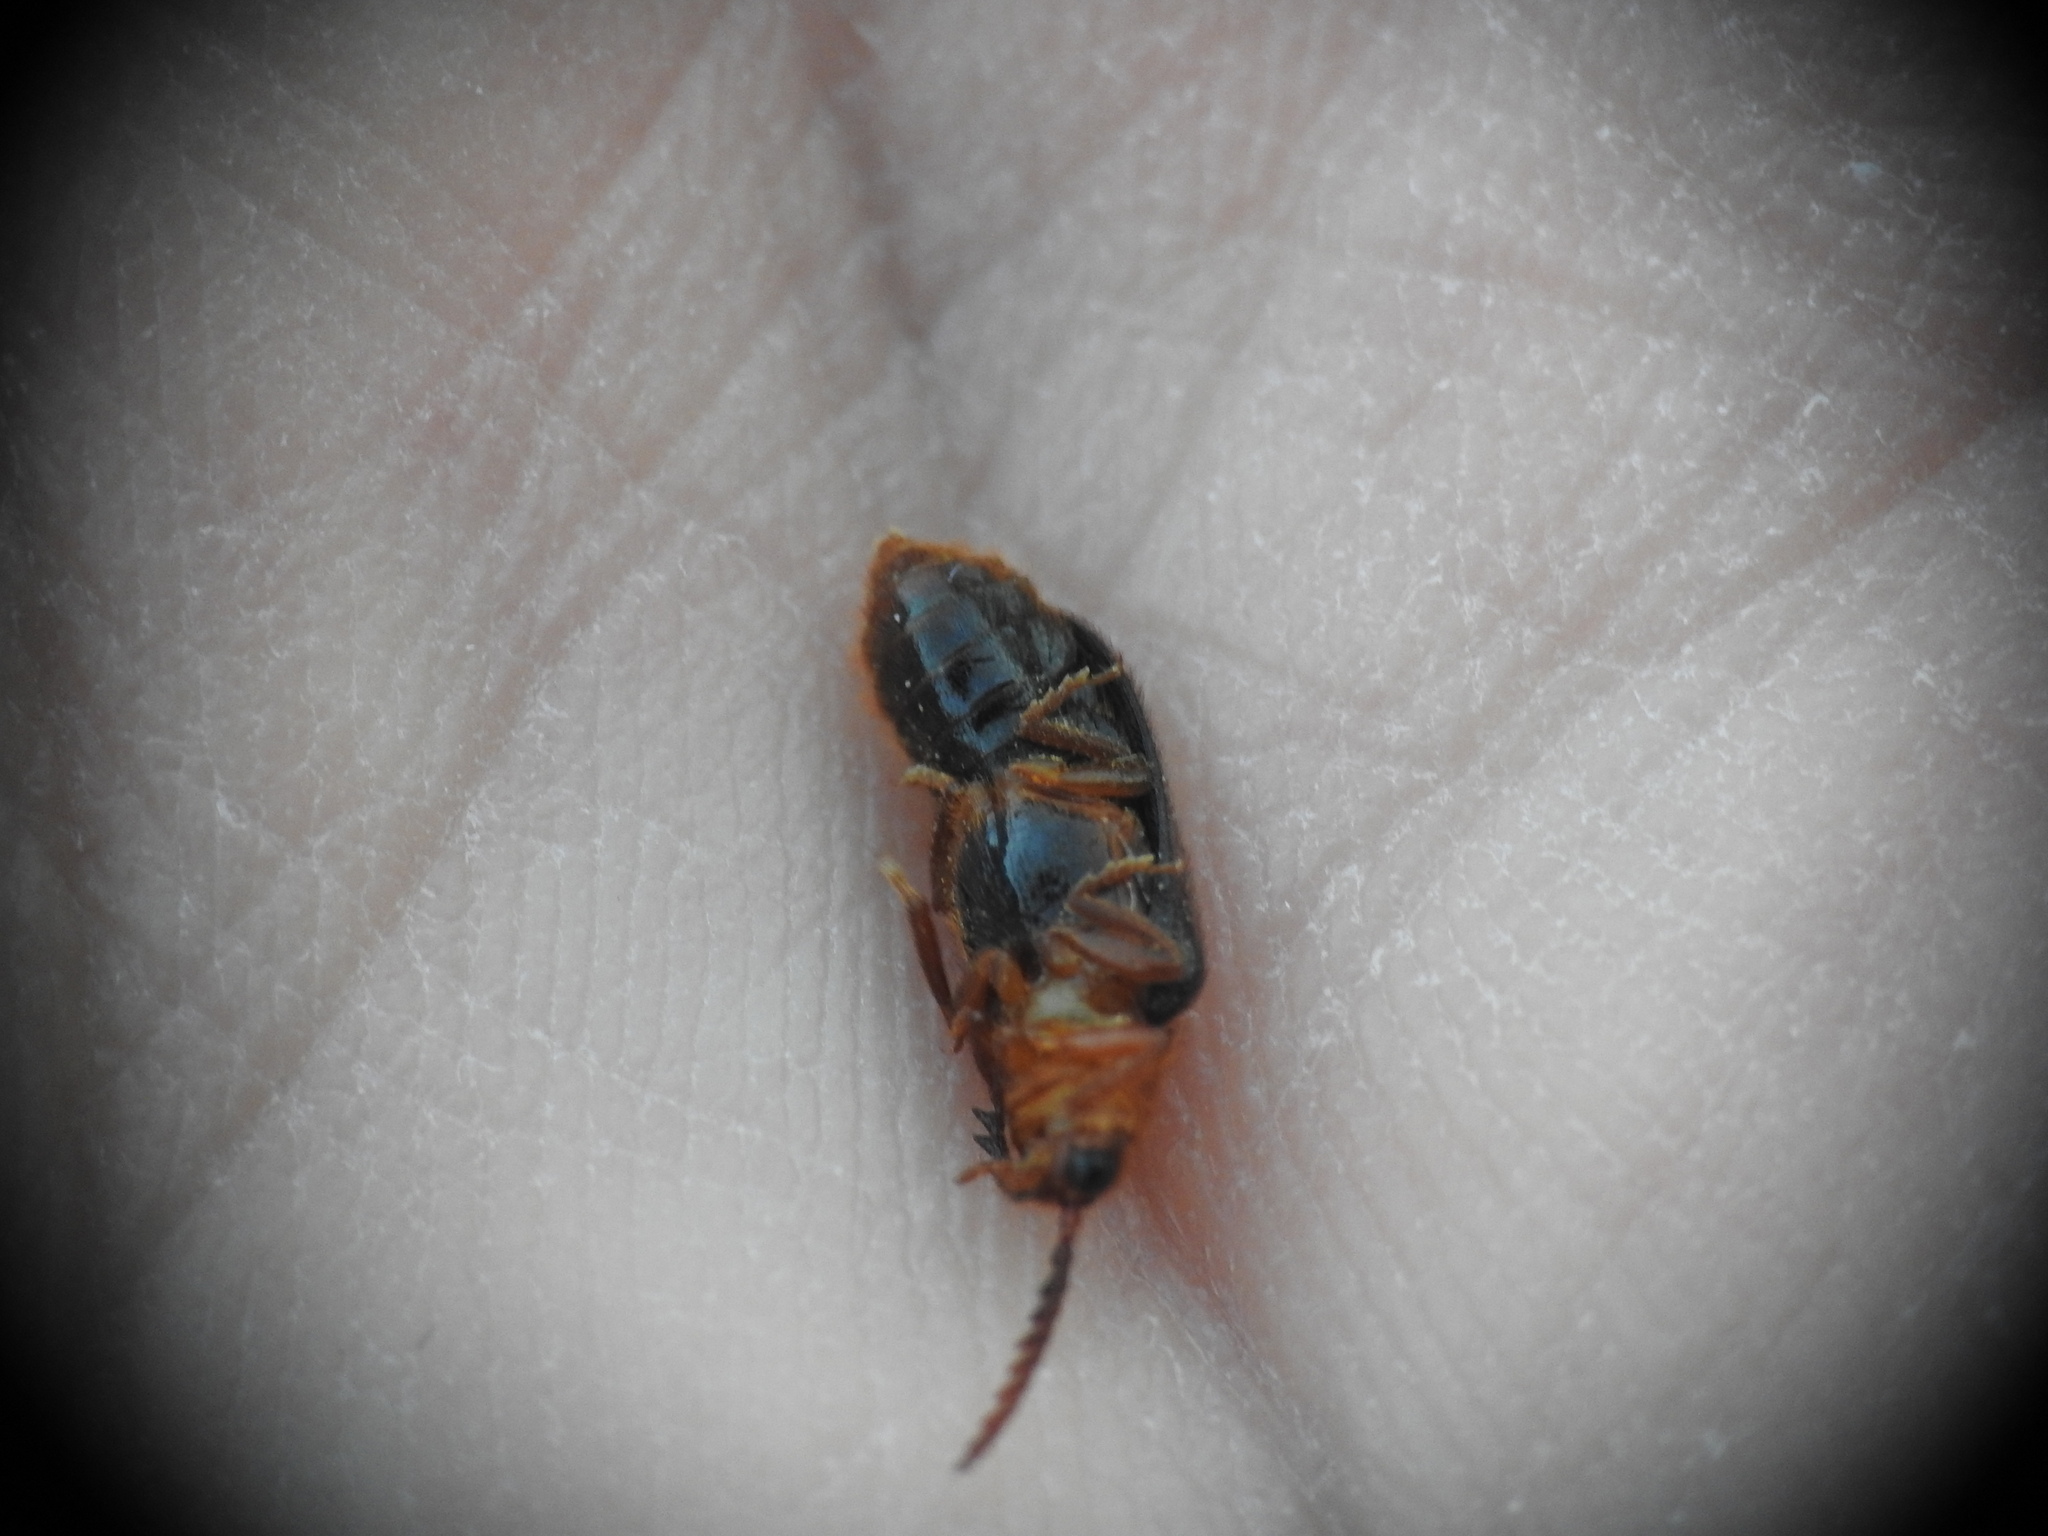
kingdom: Animalia
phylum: Arthropoda
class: Insecta
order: Coleoptera
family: Drilidae
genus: Drilus
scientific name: Drilus creticus
